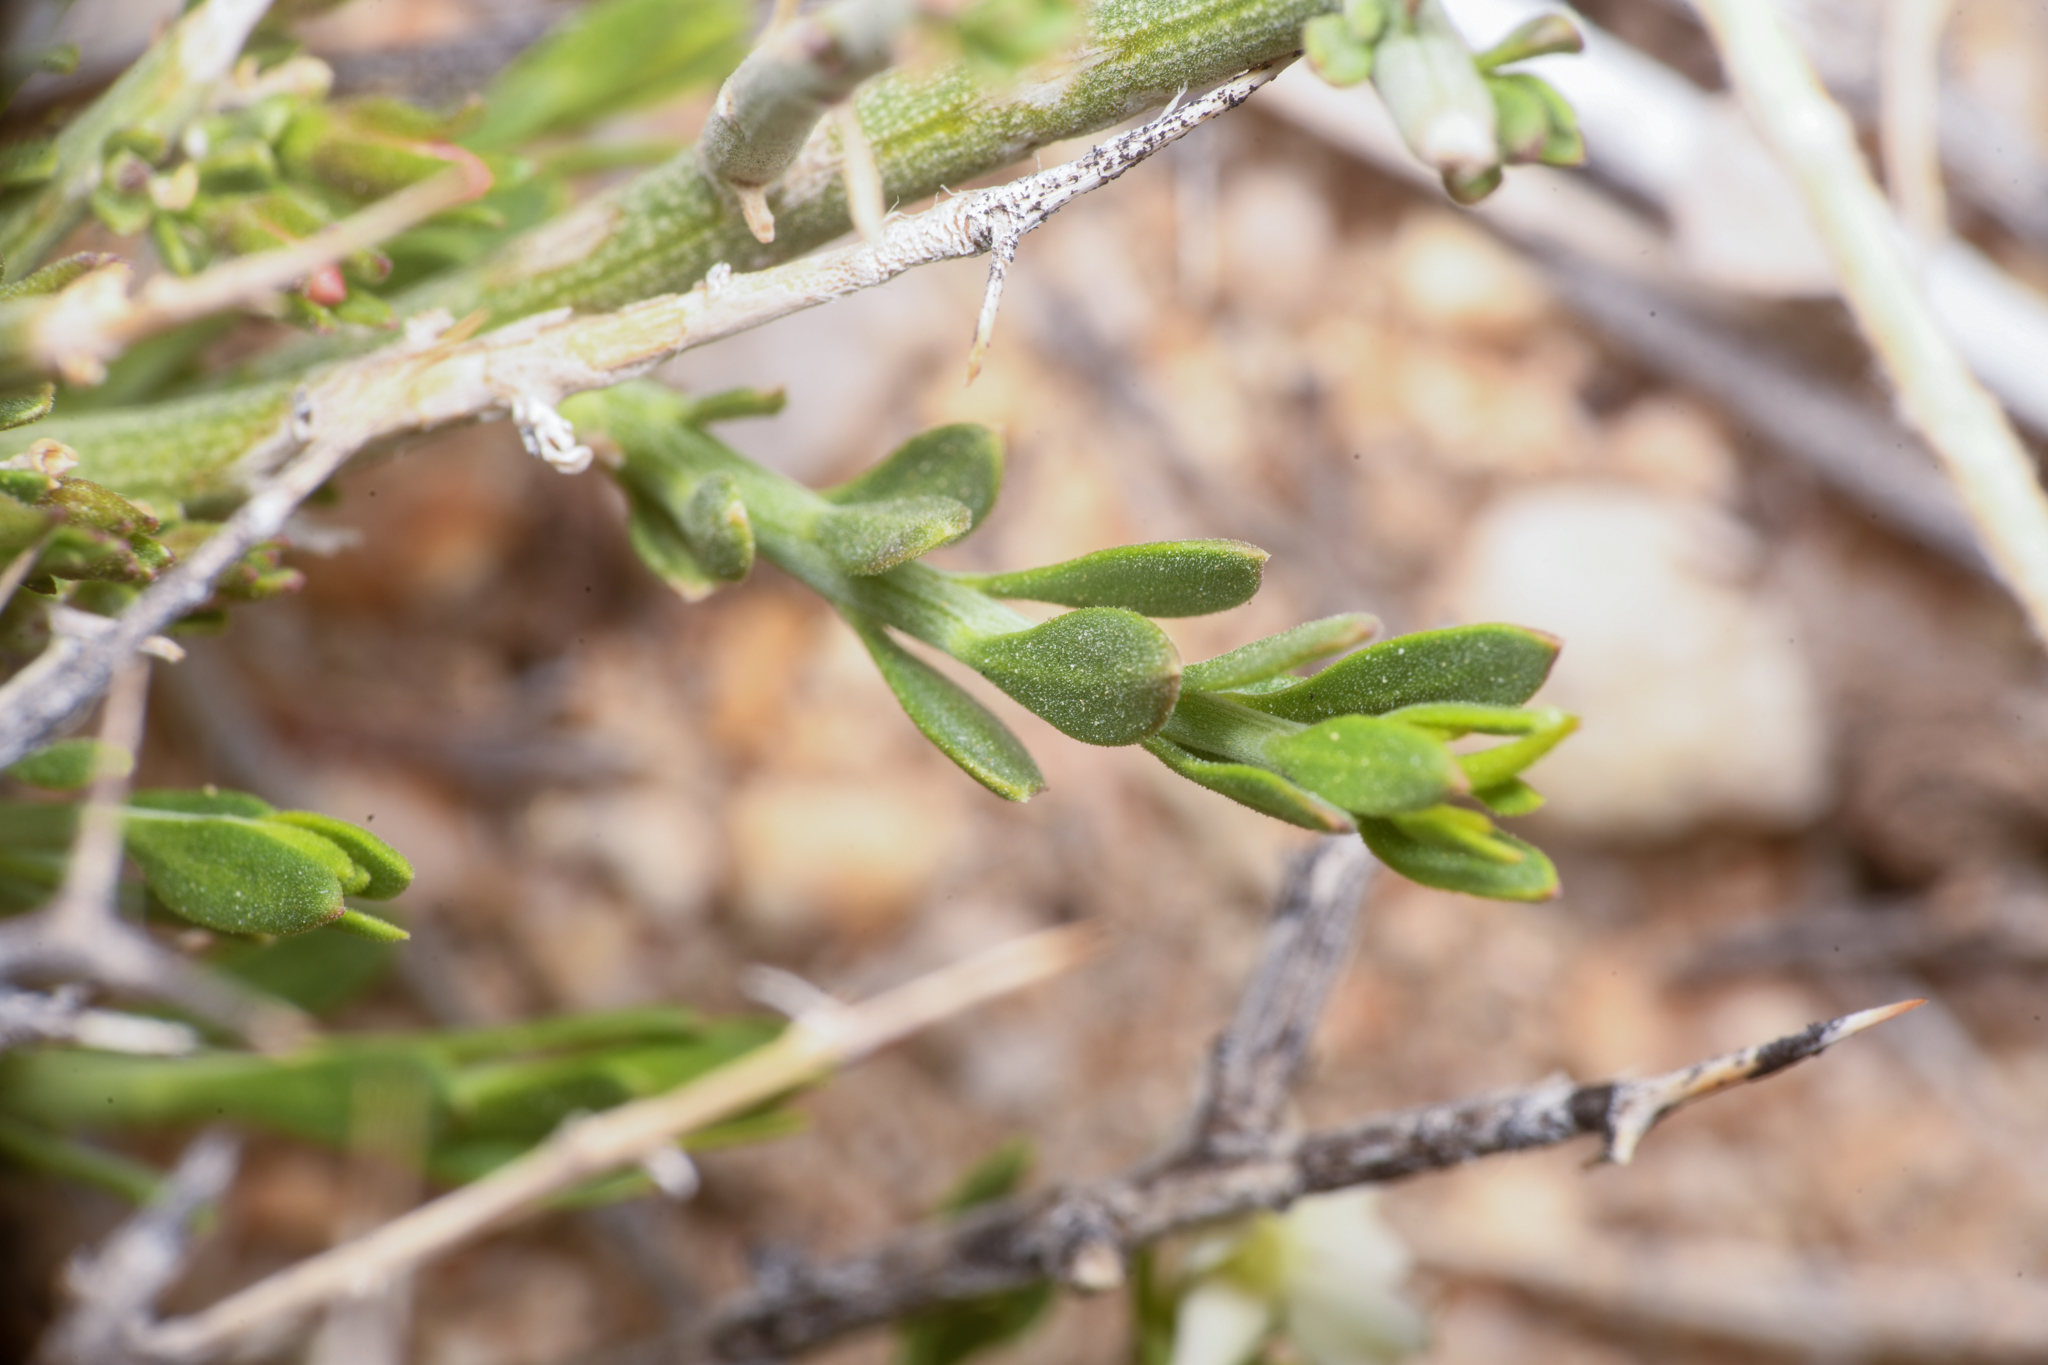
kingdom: Plantae
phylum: Tracheophyta
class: Magnoliopsida
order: Lamiales
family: Oleaceae
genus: Menodora
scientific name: Menodora spinescens
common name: Spiny menodora
